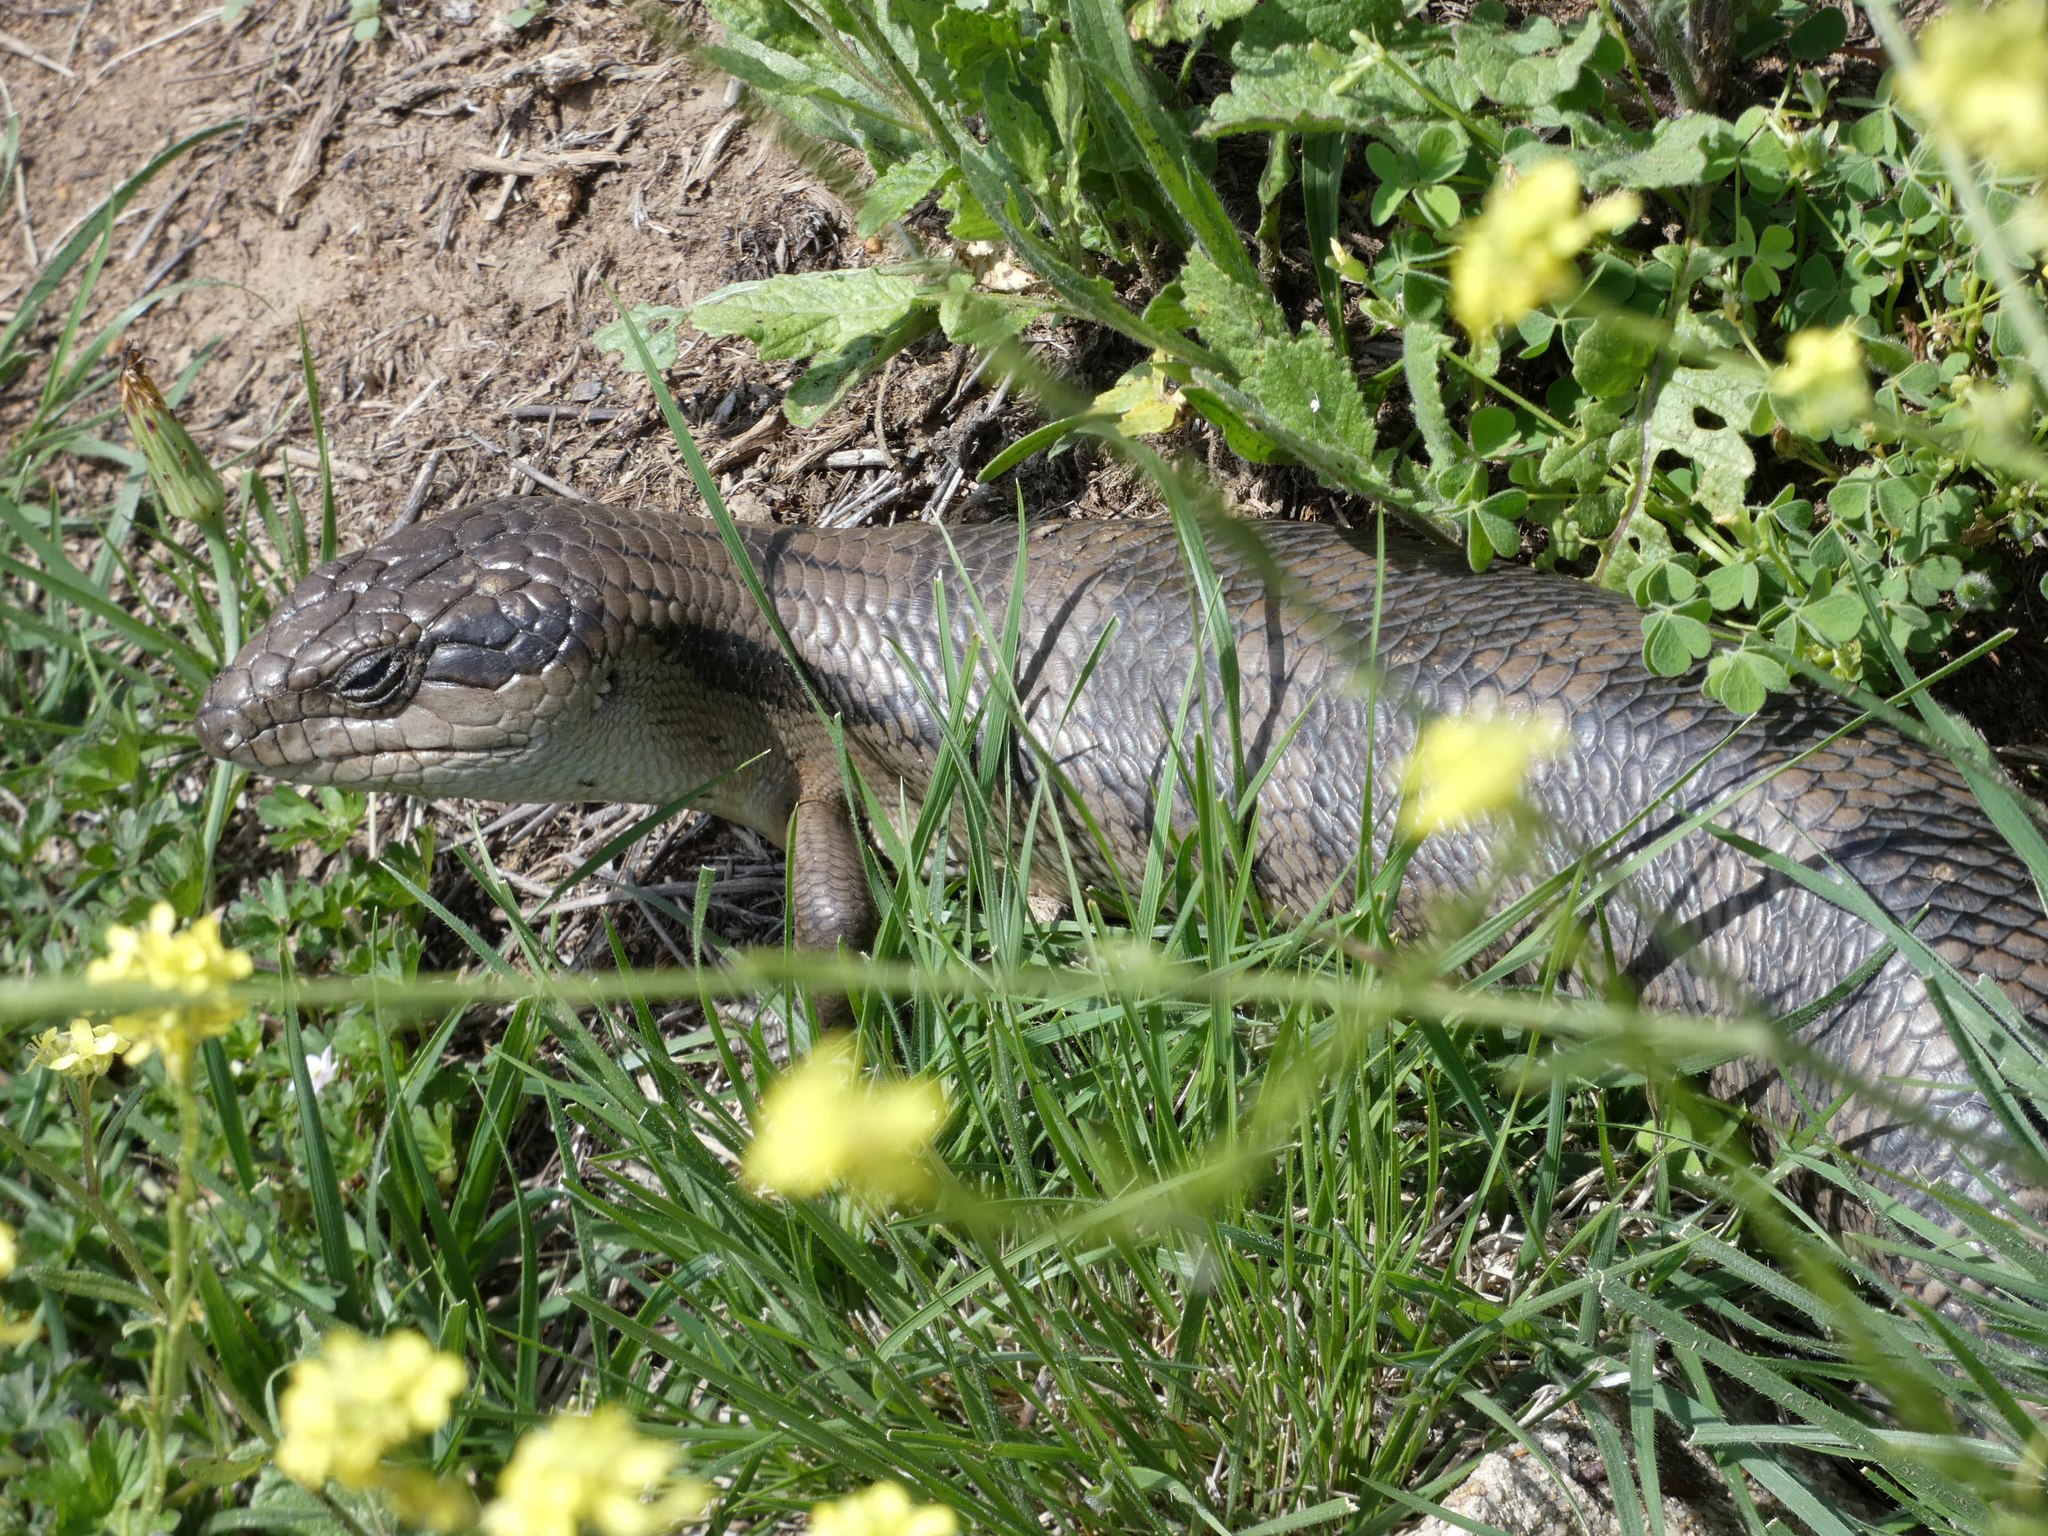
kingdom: Animalia
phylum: Chordata
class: Squamata
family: Scincidae
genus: Tiliqua
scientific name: Tiliqua scincoides
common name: Common bluetongue
